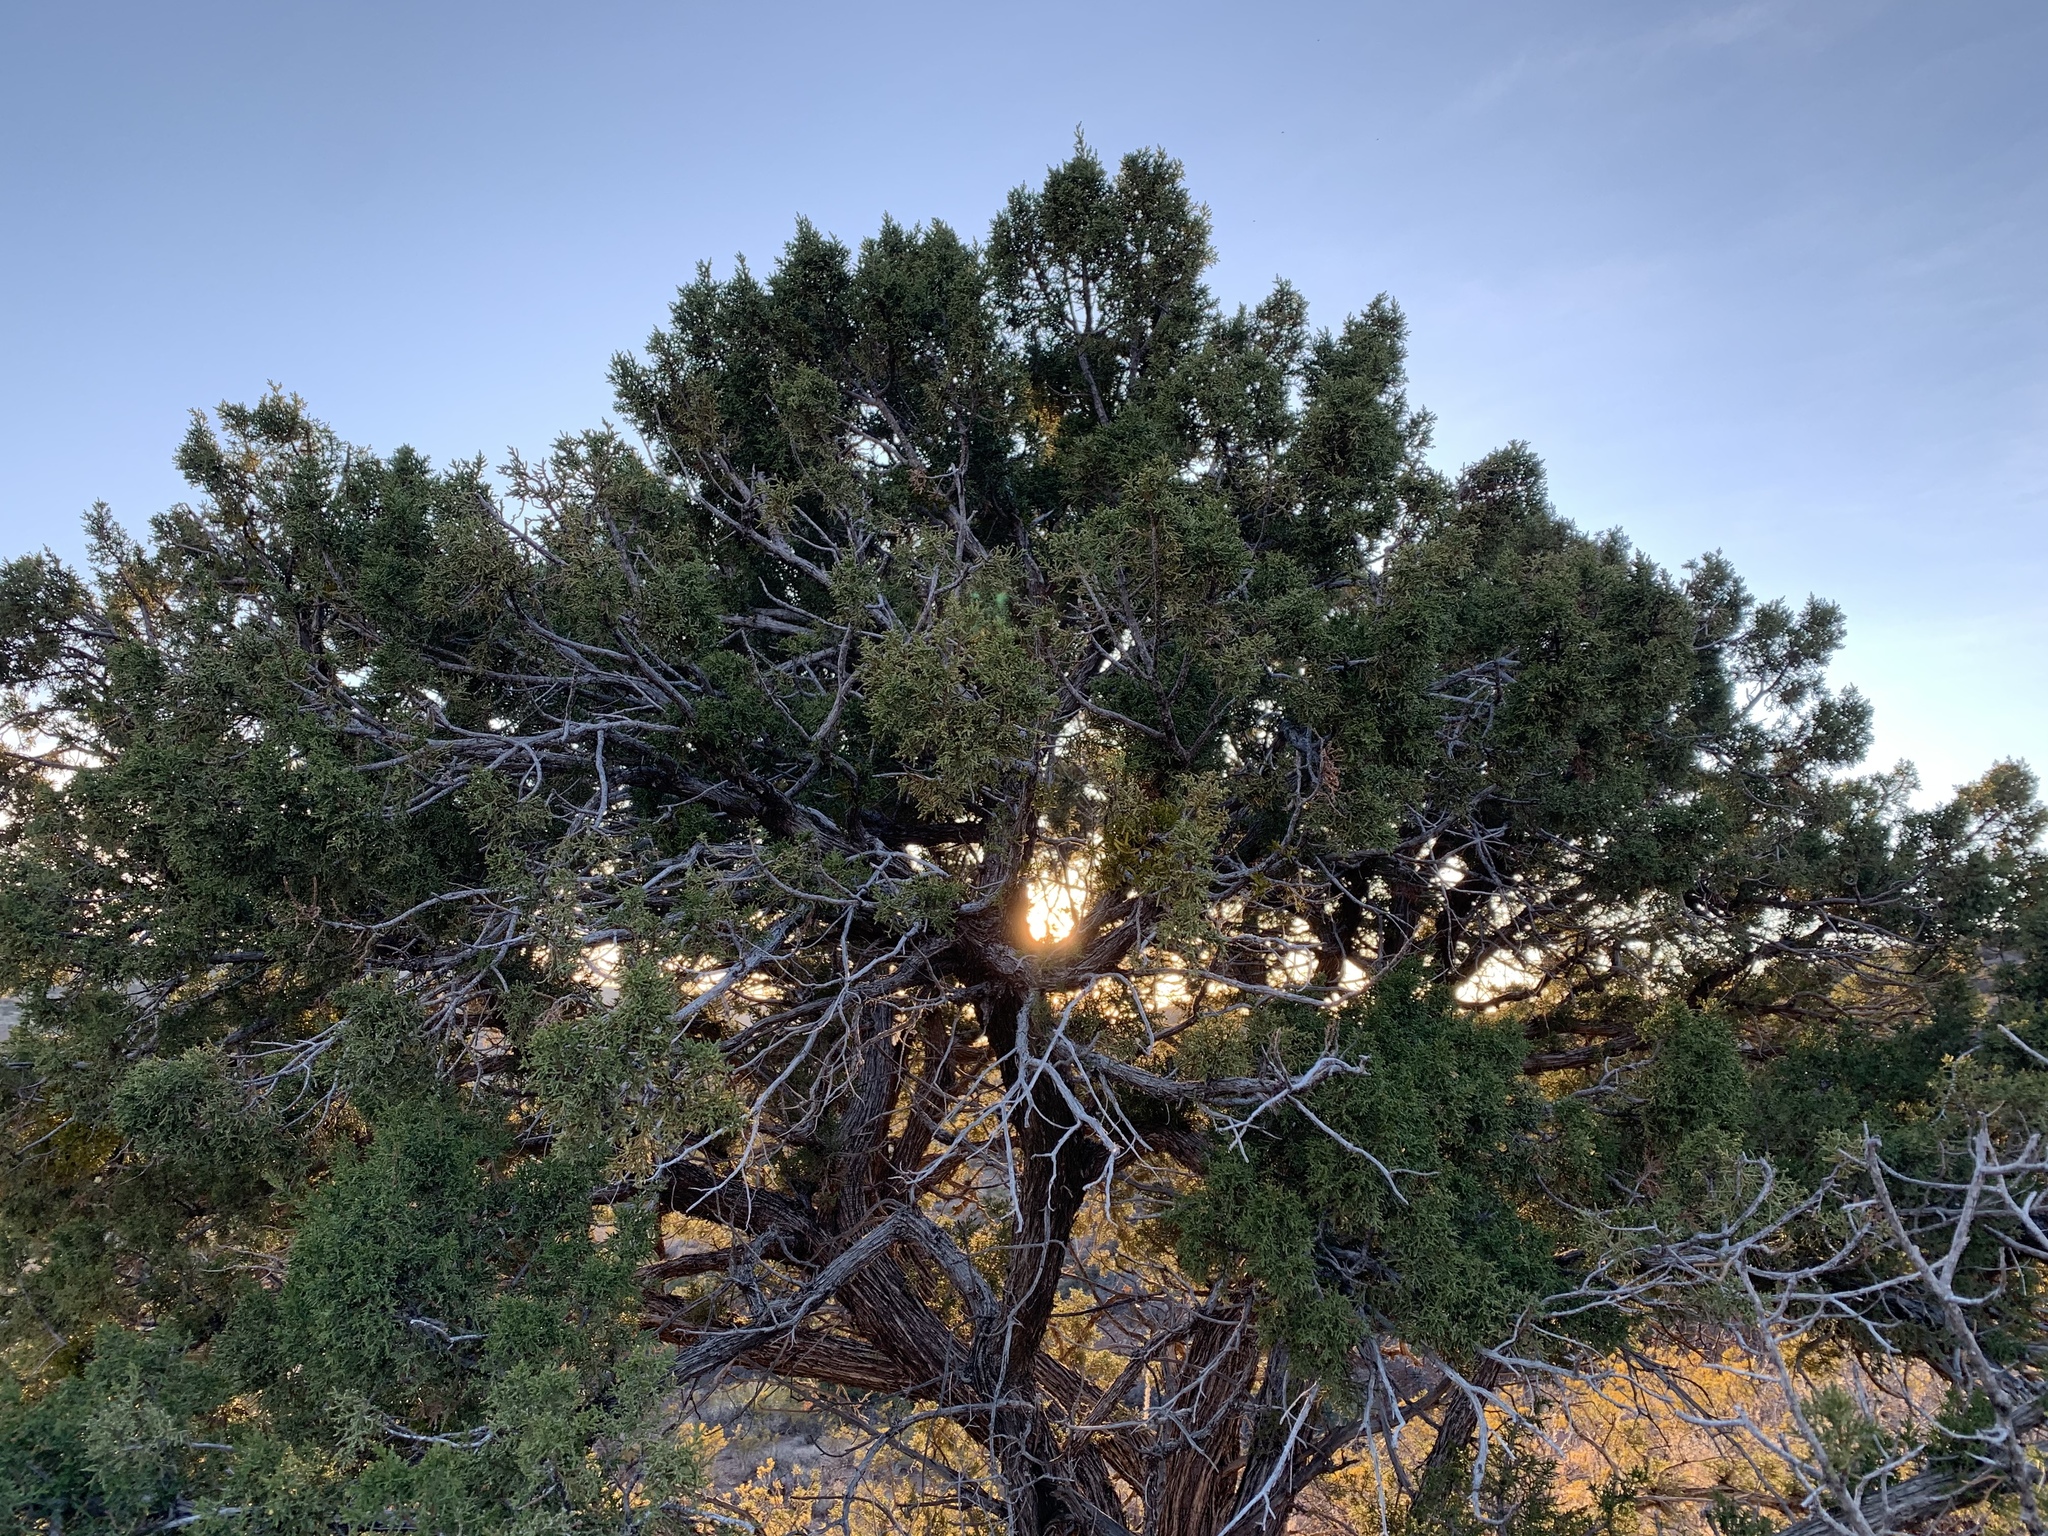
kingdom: Plantae
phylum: Tracheophyta
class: Pinopsida
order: Pinales
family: Cupressaceae
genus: Juniperus
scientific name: Juniperus monosperma
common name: One-seed juniper
